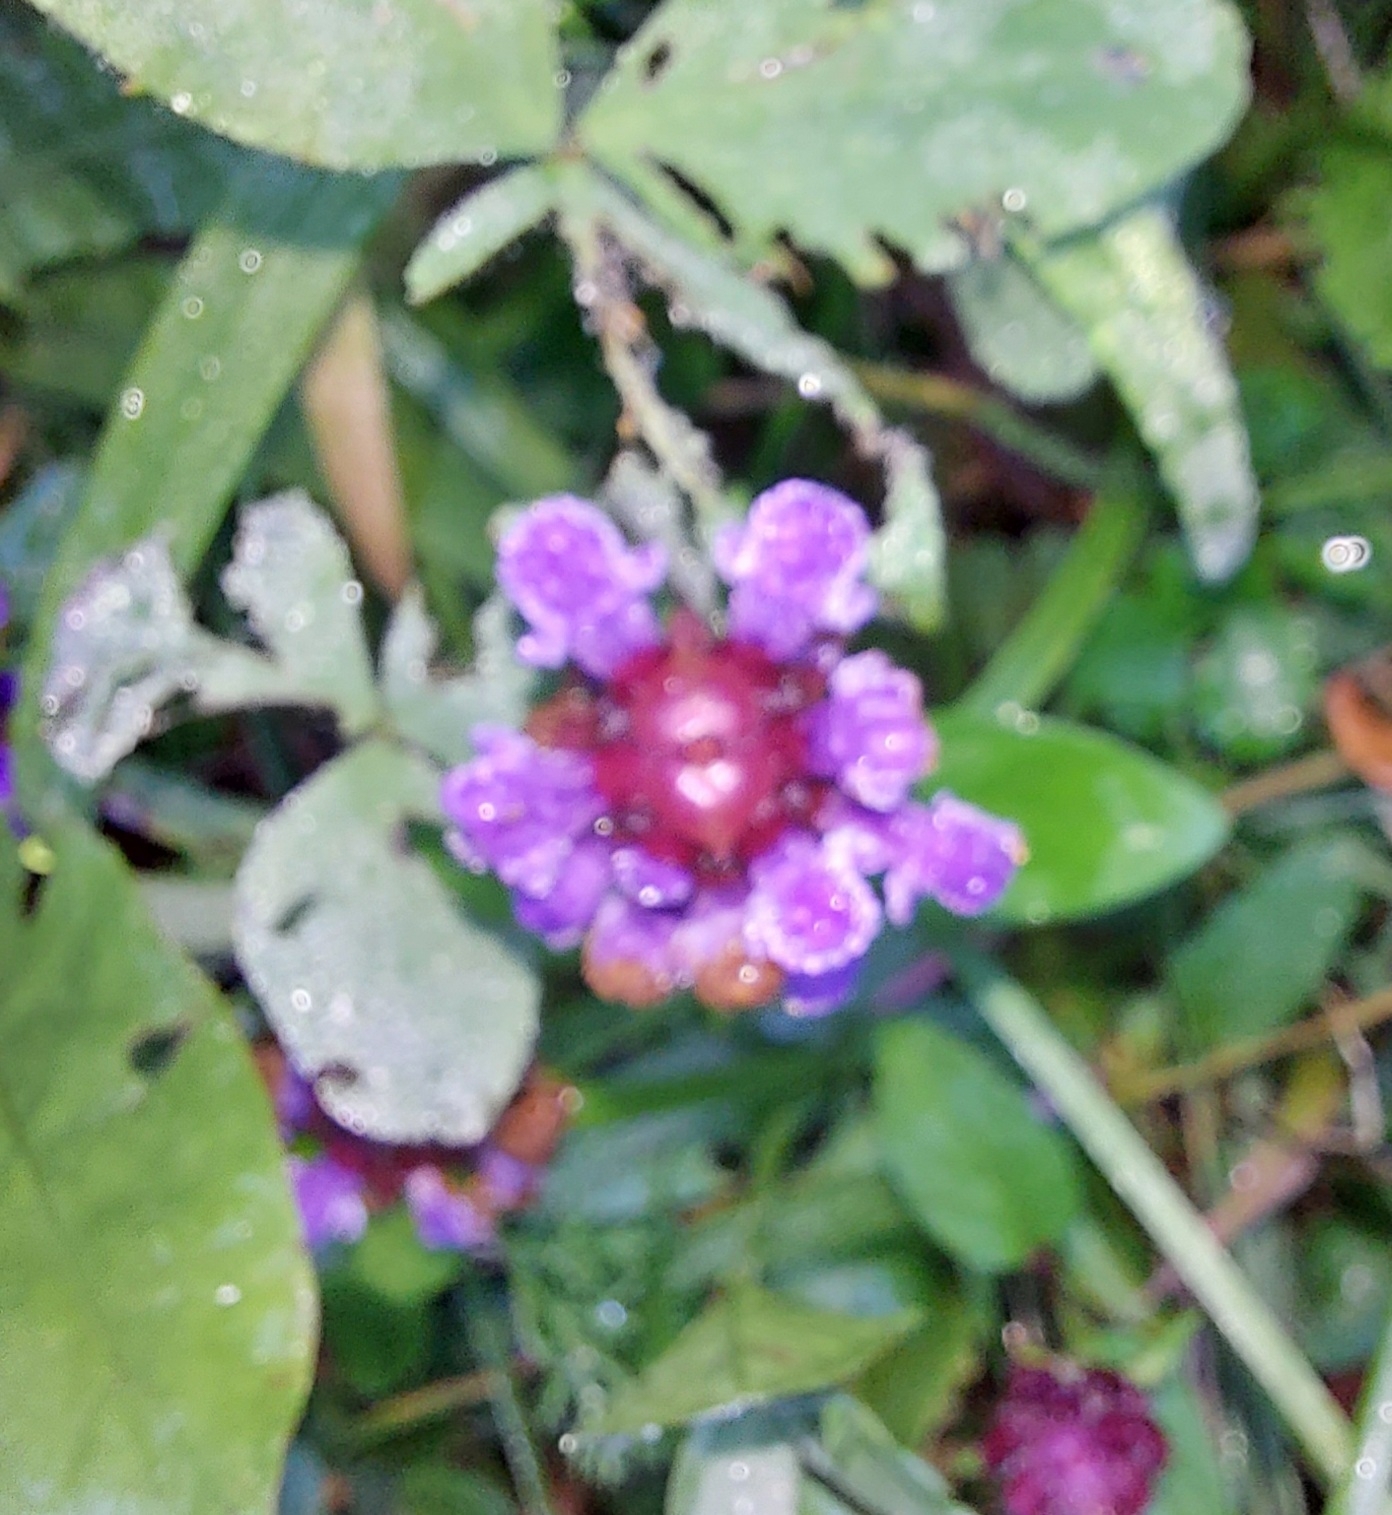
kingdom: Plantae
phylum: Tracheophyta
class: Magnoliopsida
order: Lamiales
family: Lamiaceae
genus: Prunella
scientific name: Prunella vulgaris
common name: Heal-all
